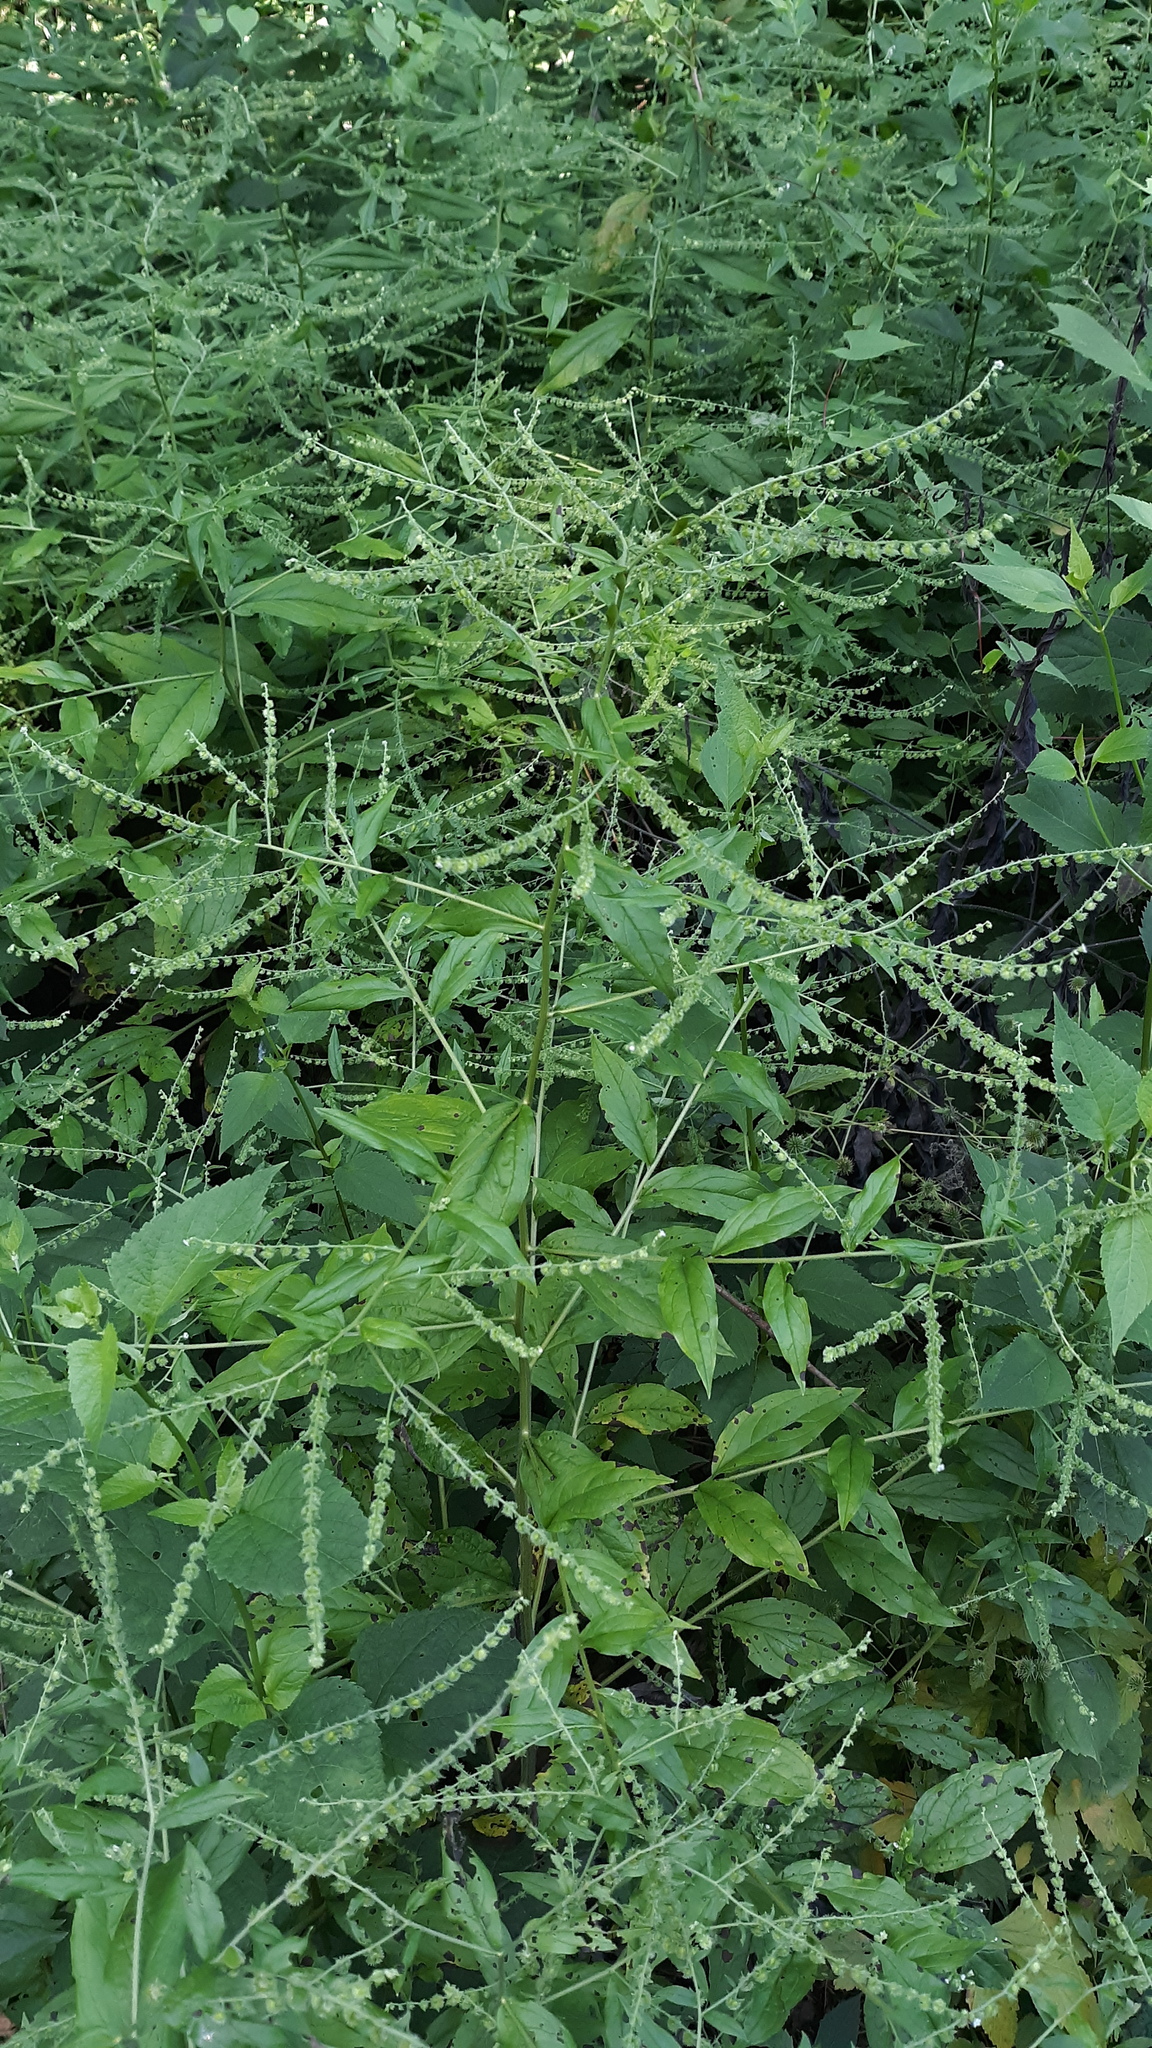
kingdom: Plantae
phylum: Tracheophyta
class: Magnoliopsida
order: Boraginales
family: Boraginaceae
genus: Hackelia
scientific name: Hackelia virginiana
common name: Beggar's-lice
